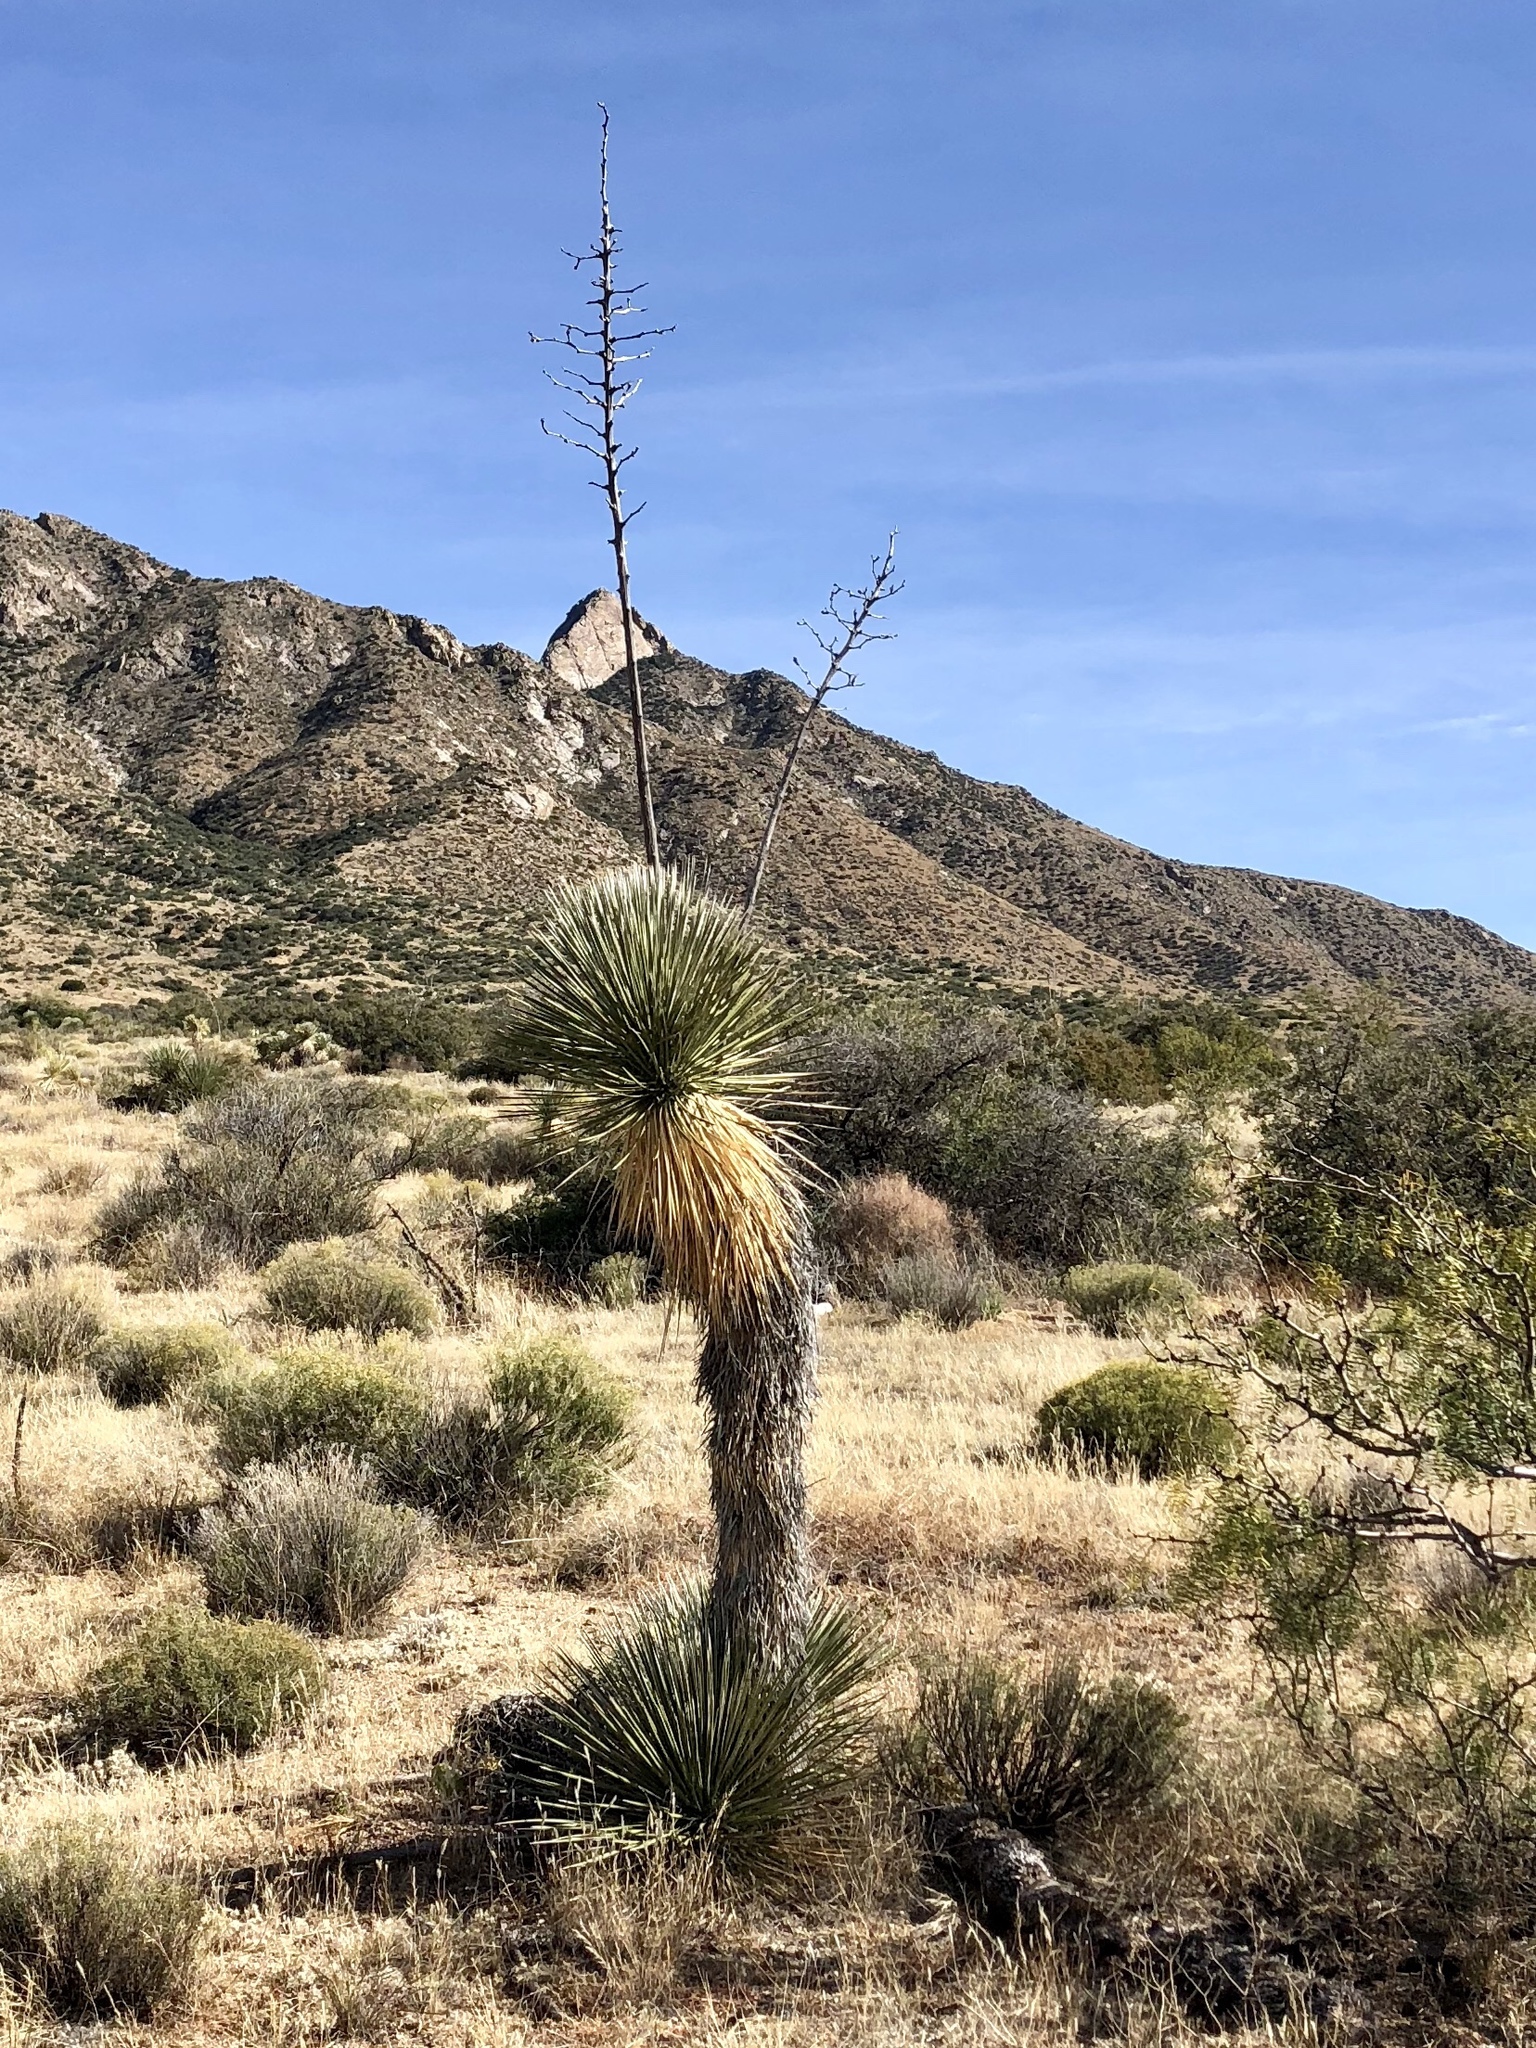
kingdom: Plantae
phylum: Tracheophyta
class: Liliopsida
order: Asparagales
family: Asparagaceae
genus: Yucca
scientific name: Yucca elata
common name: Palmella
